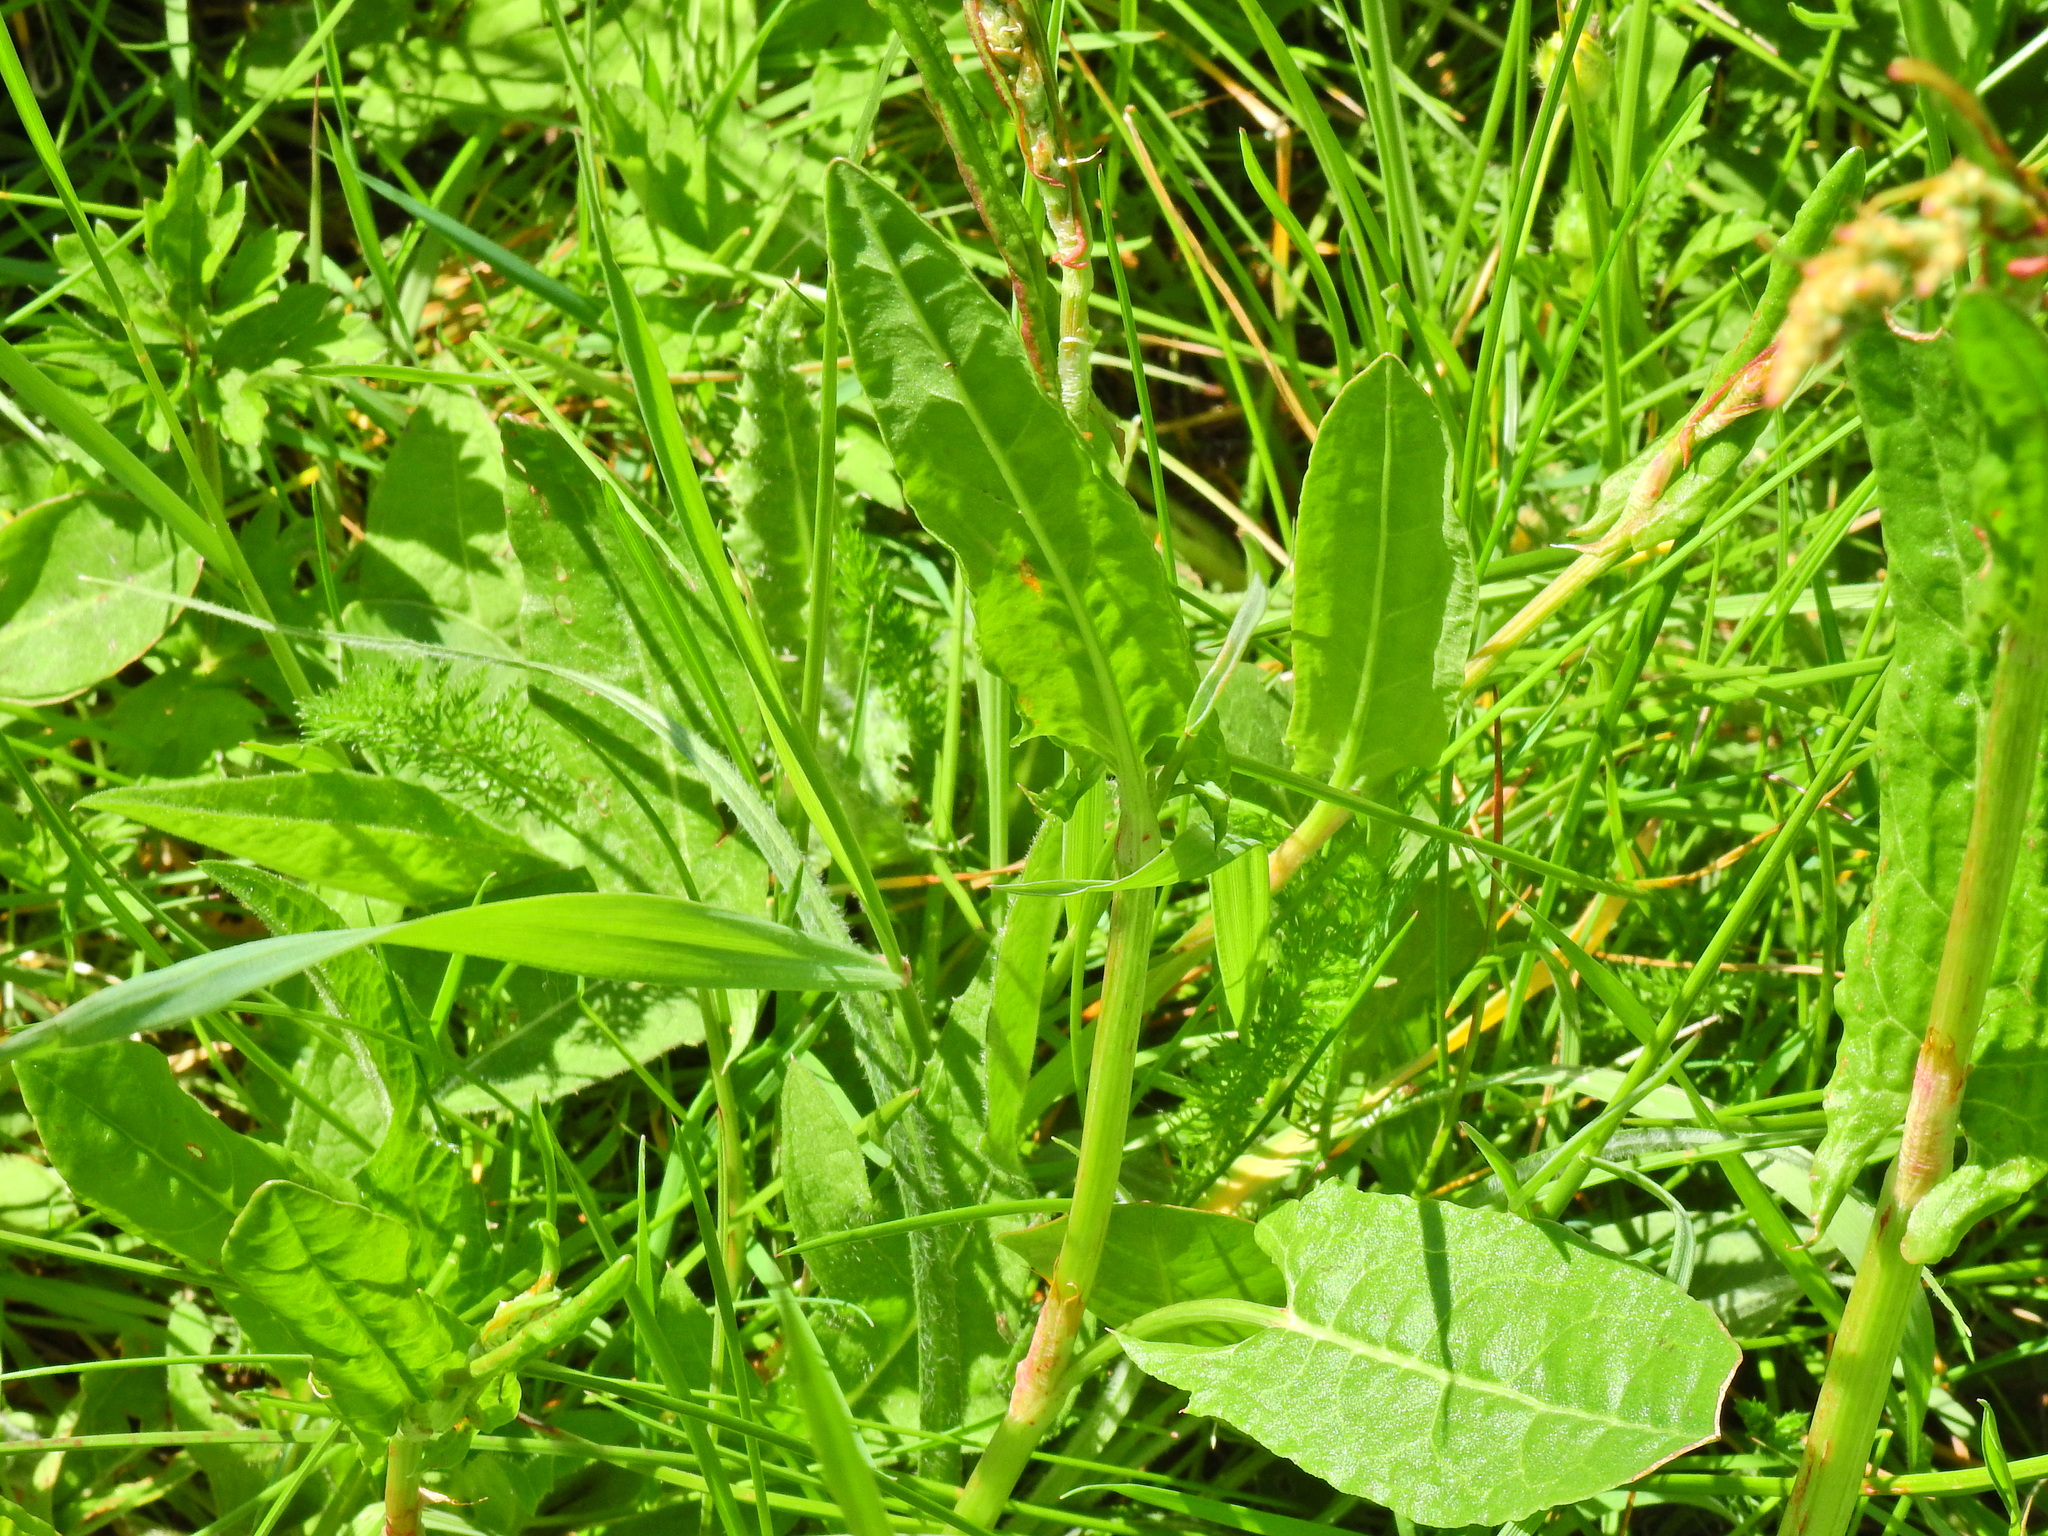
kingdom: Plantae
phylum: Tracheophyta
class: Magnoliopsida
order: Caryophyllales
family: Polygonaceae
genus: Rumex
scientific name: Rumex acetosa
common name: Garden sorrel
